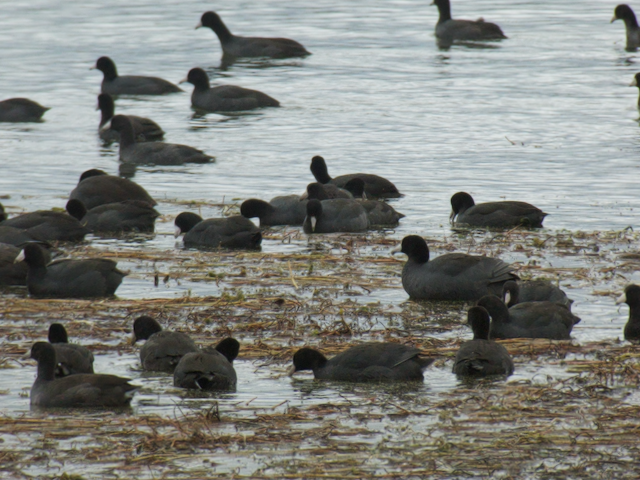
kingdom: Animalia
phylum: Chordata
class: Aves
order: Gruiformes
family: Rallidae
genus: Fulica
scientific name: Fulica americana
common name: American coot
